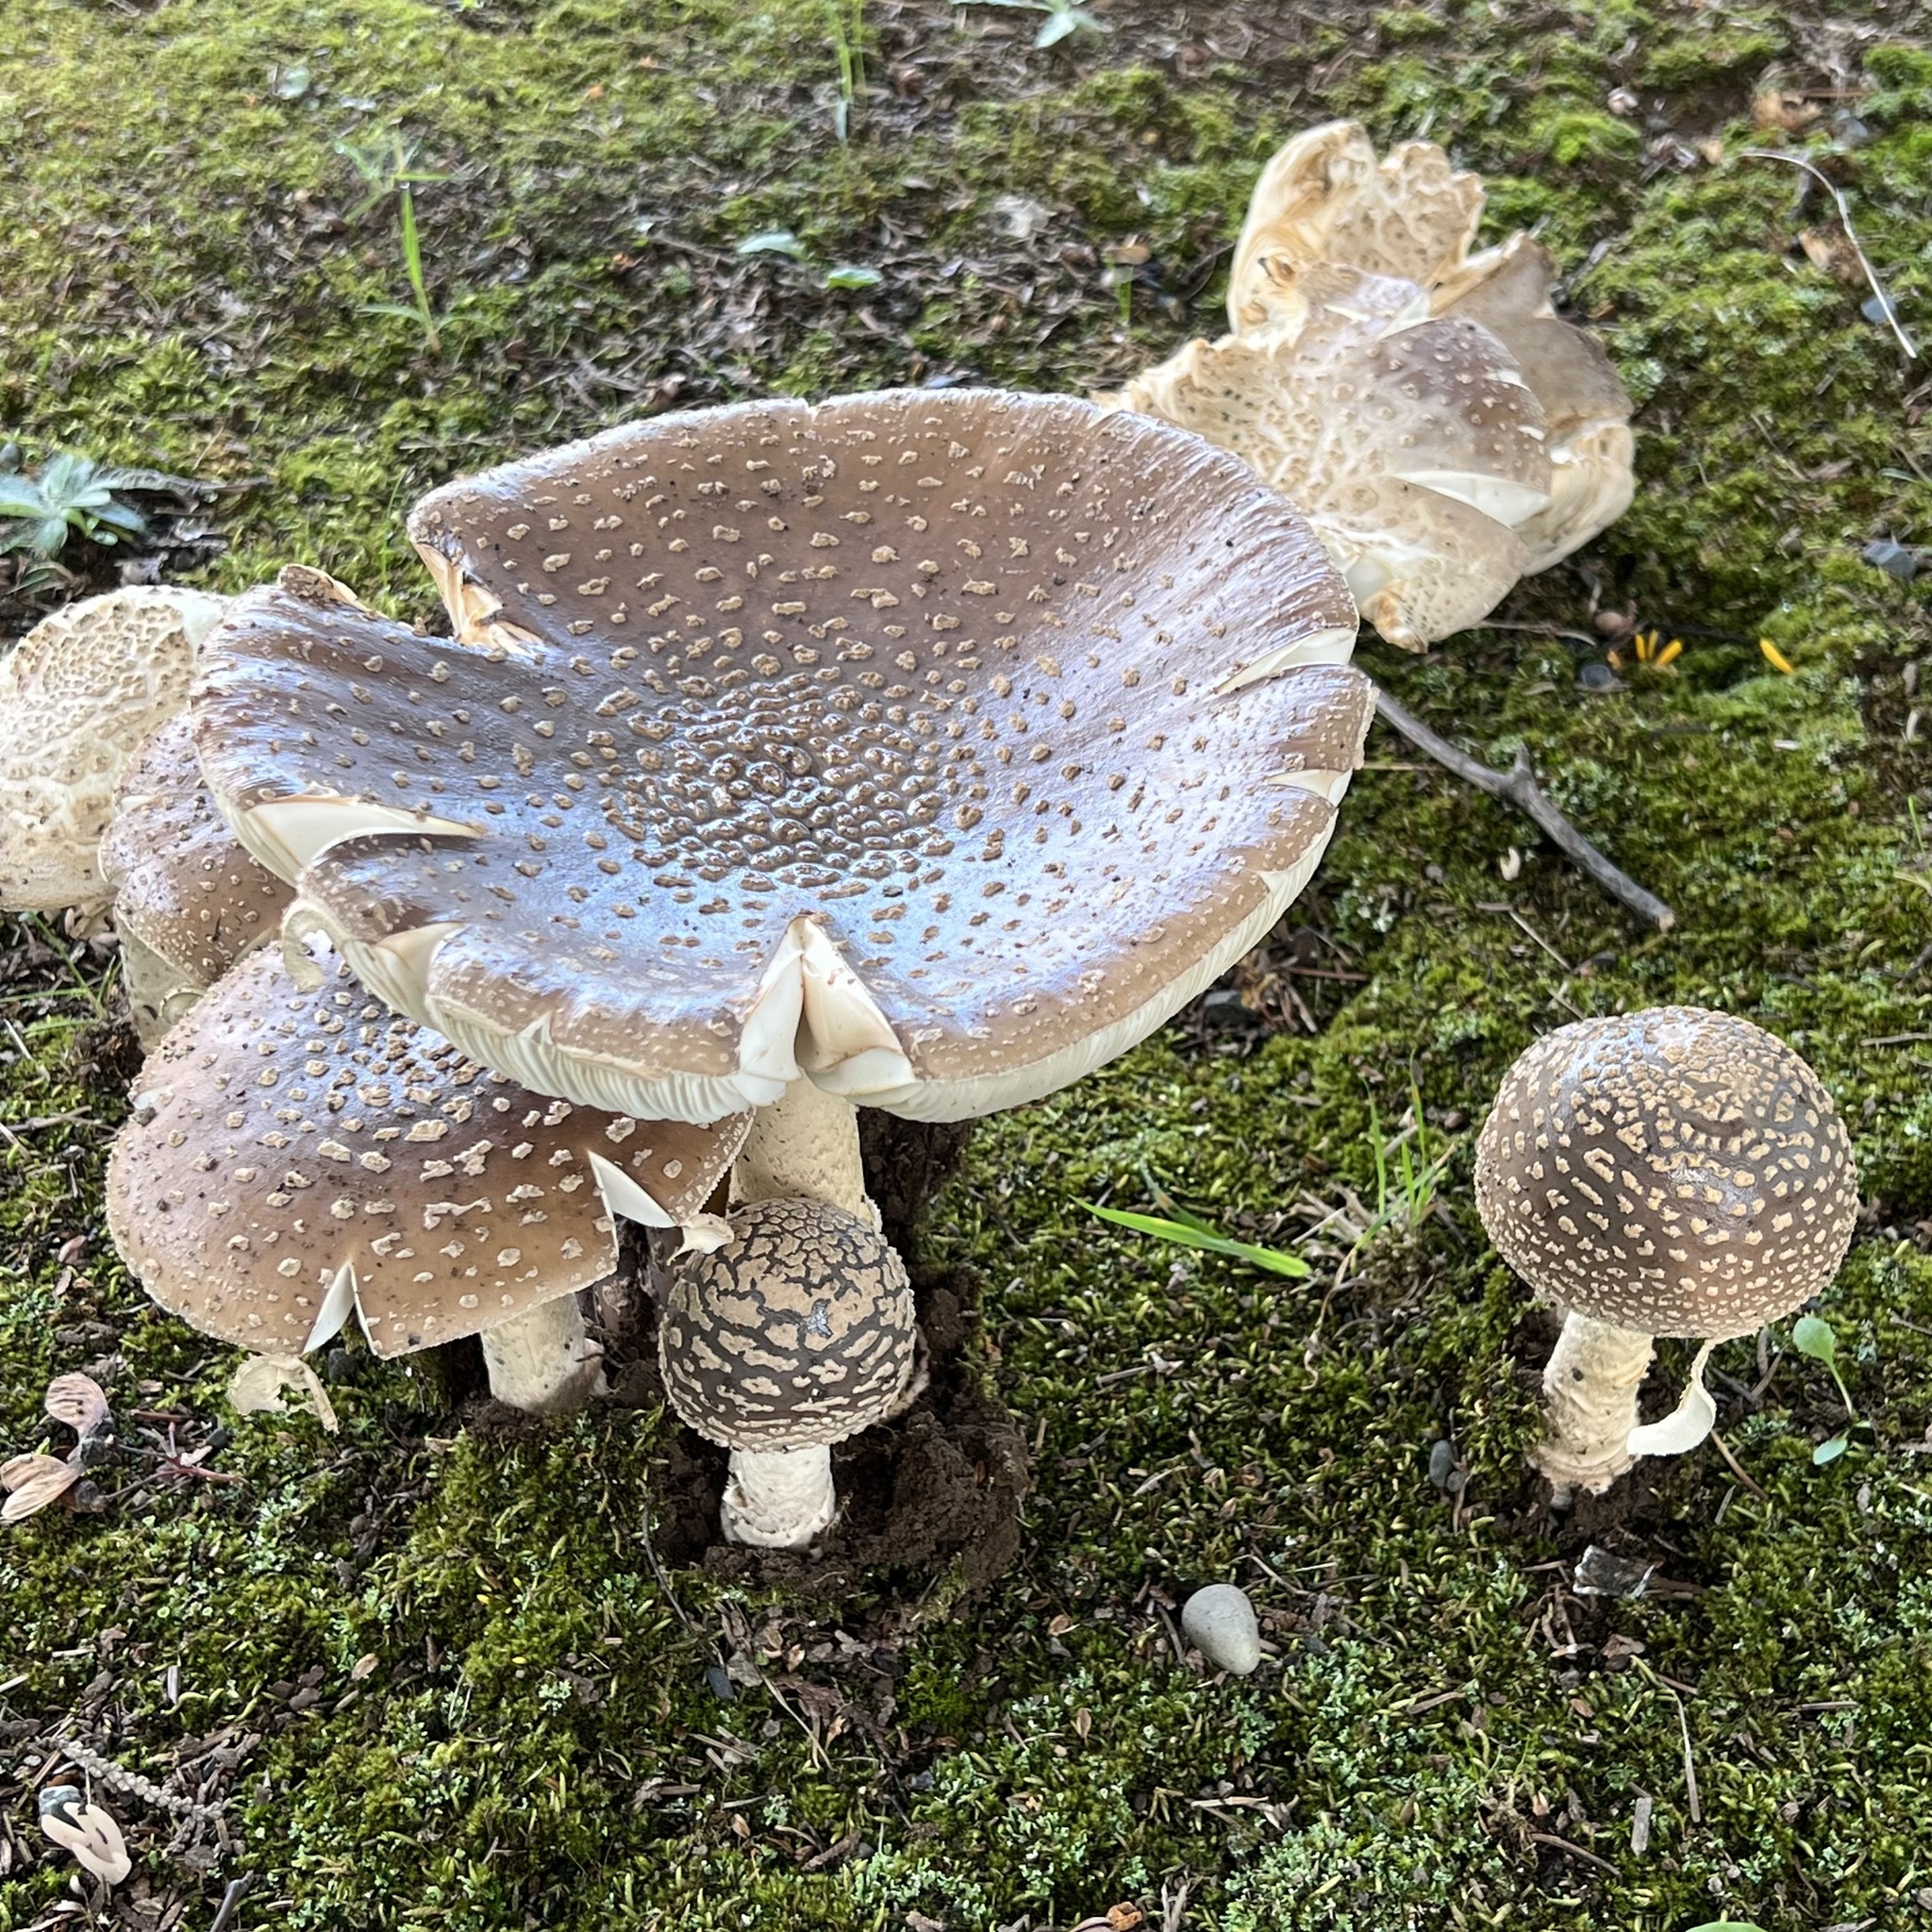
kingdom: Fungi
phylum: Basidiomycota
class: Agaricomycetes
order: Agaricales
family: Amanitaceae
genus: Amanita
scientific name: Amanita ibotengutake
